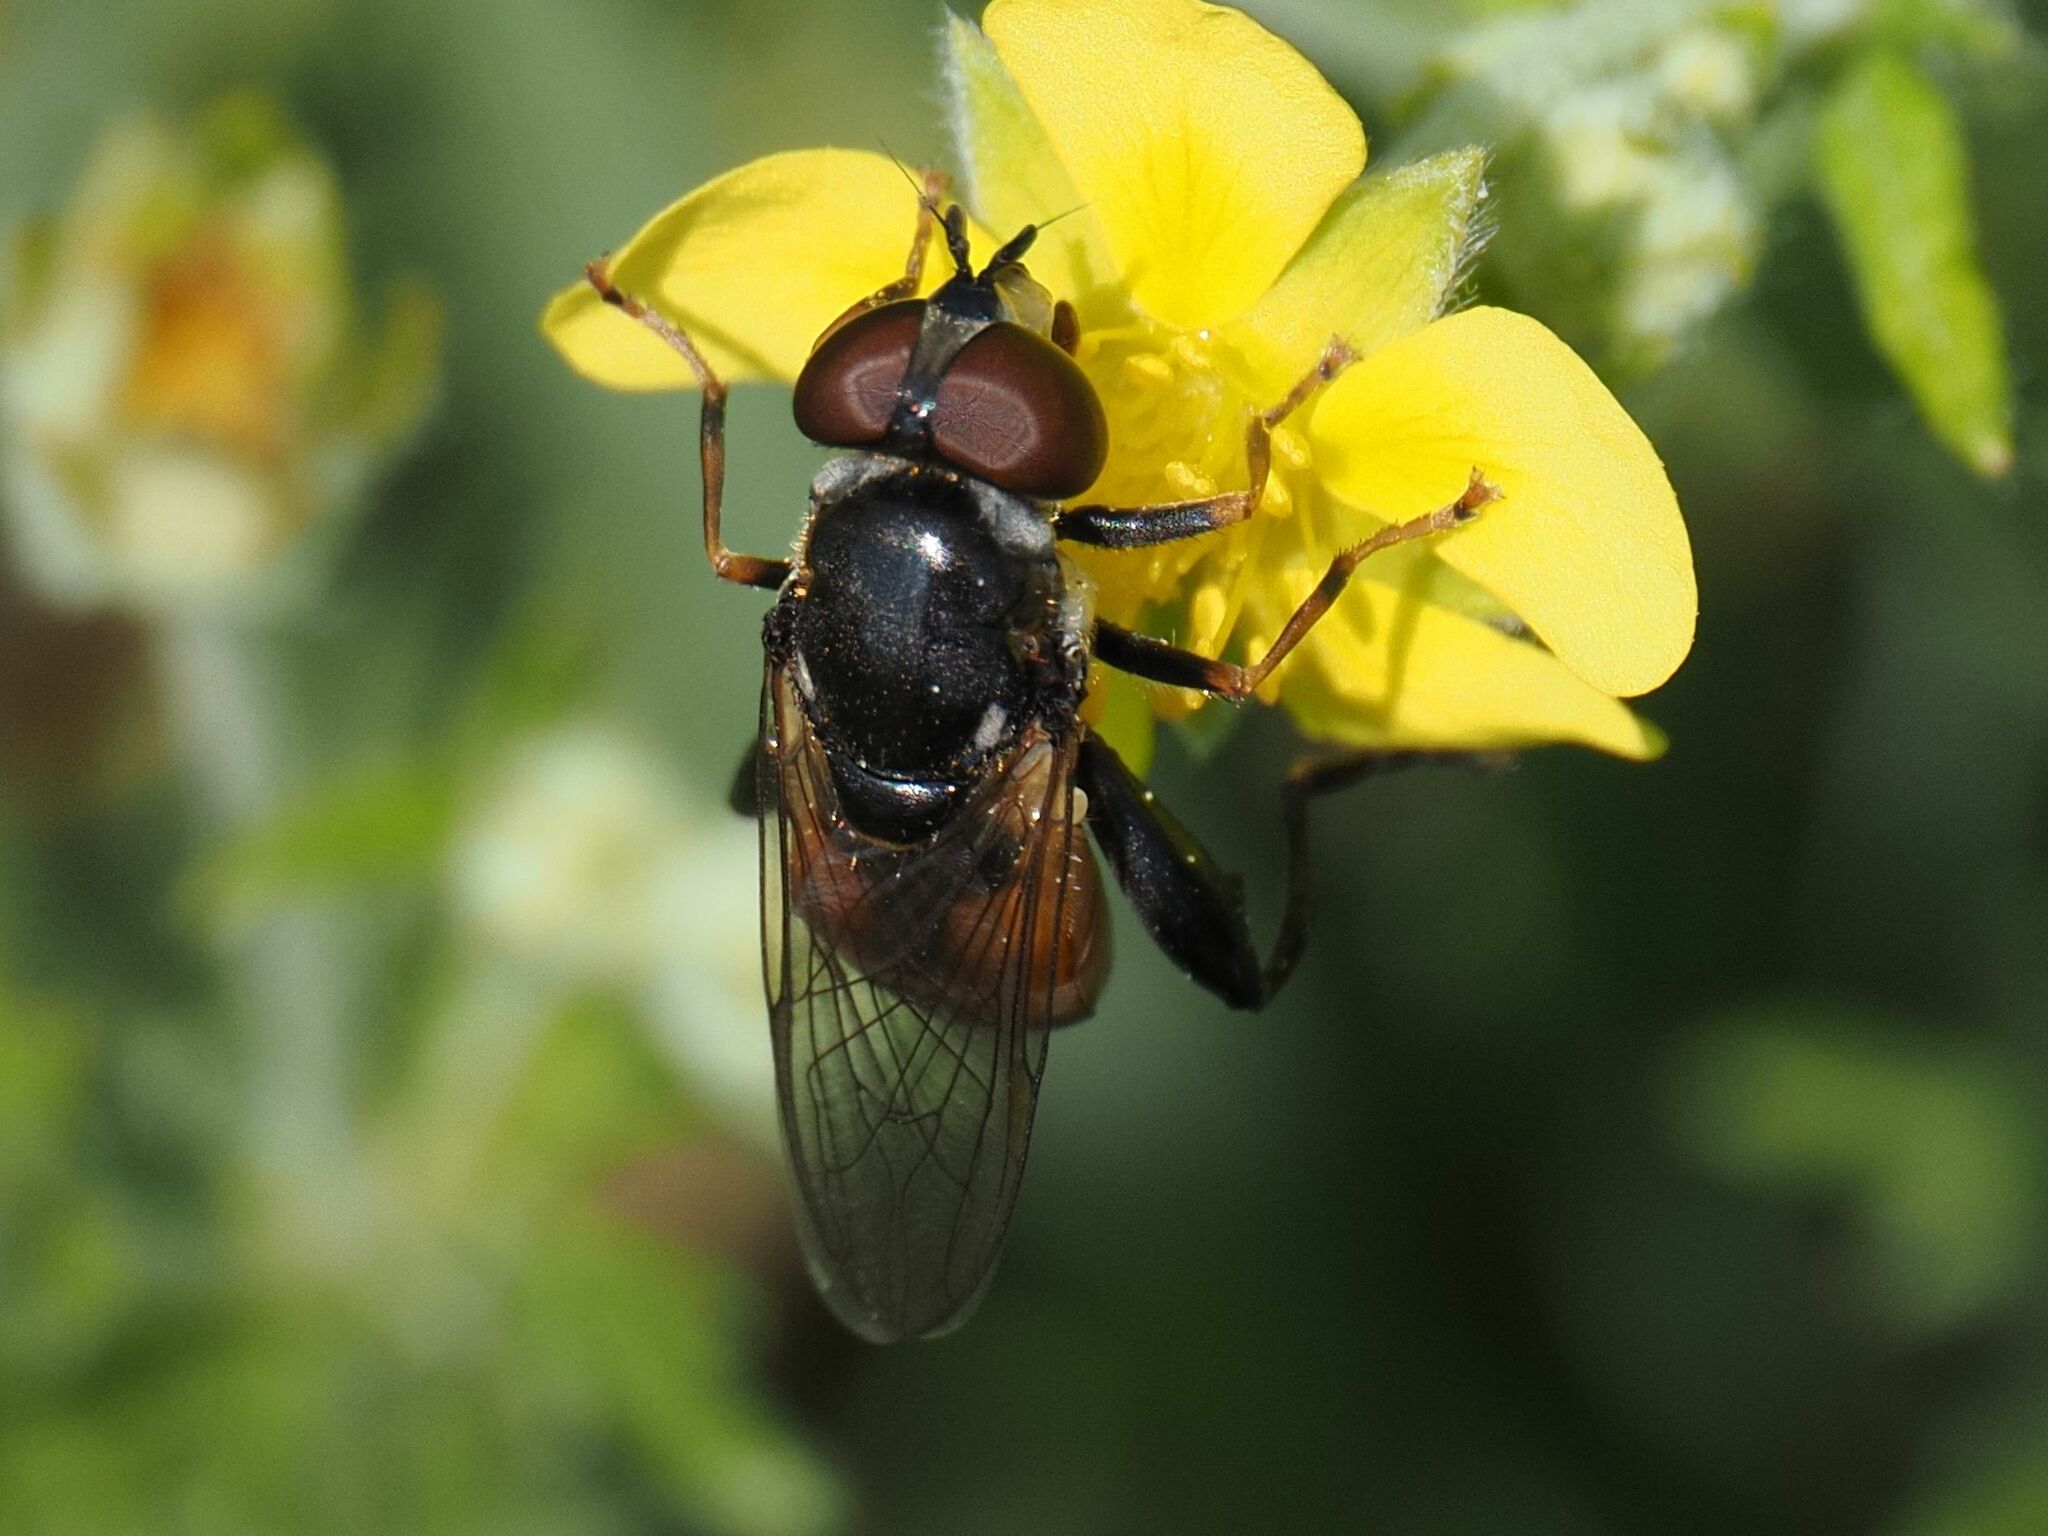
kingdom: Animalia
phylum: Arthropoda
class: Insecta
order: Diptera
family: Syrphidae
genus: Tropidia
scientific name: Tropidia scita
